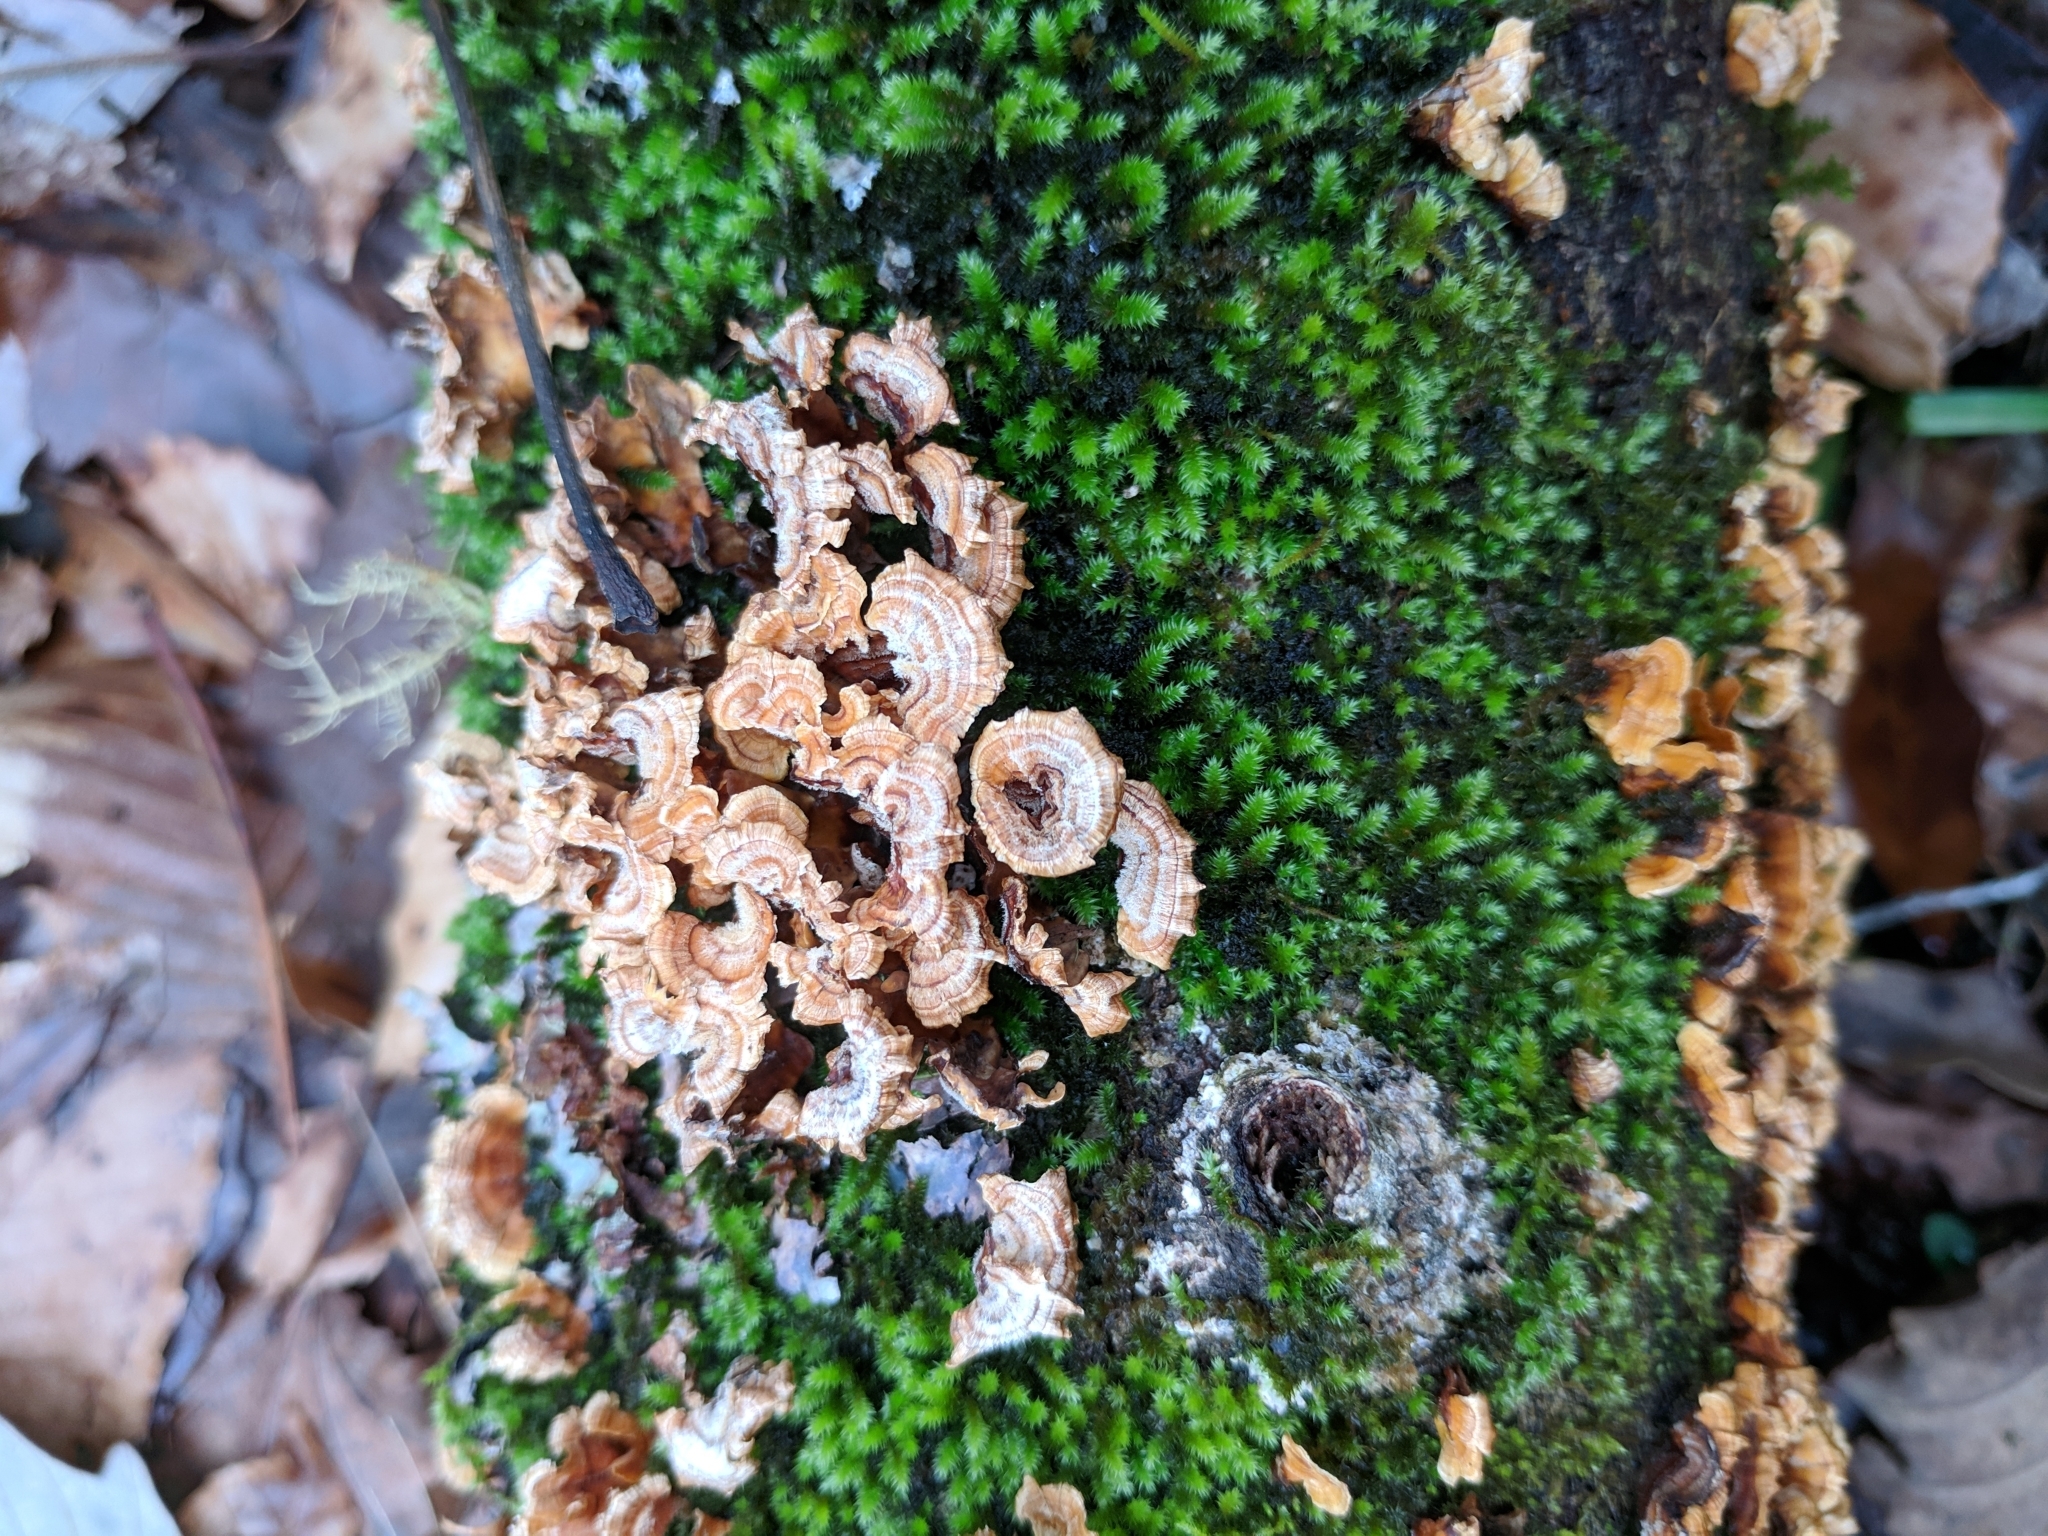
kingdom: Fungi
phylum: Basidiomycota
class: Agaricomycetes
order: Russulales
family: Stereaceae
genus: Stereum
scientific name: Stereum complicatum
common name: Crowded parchment
